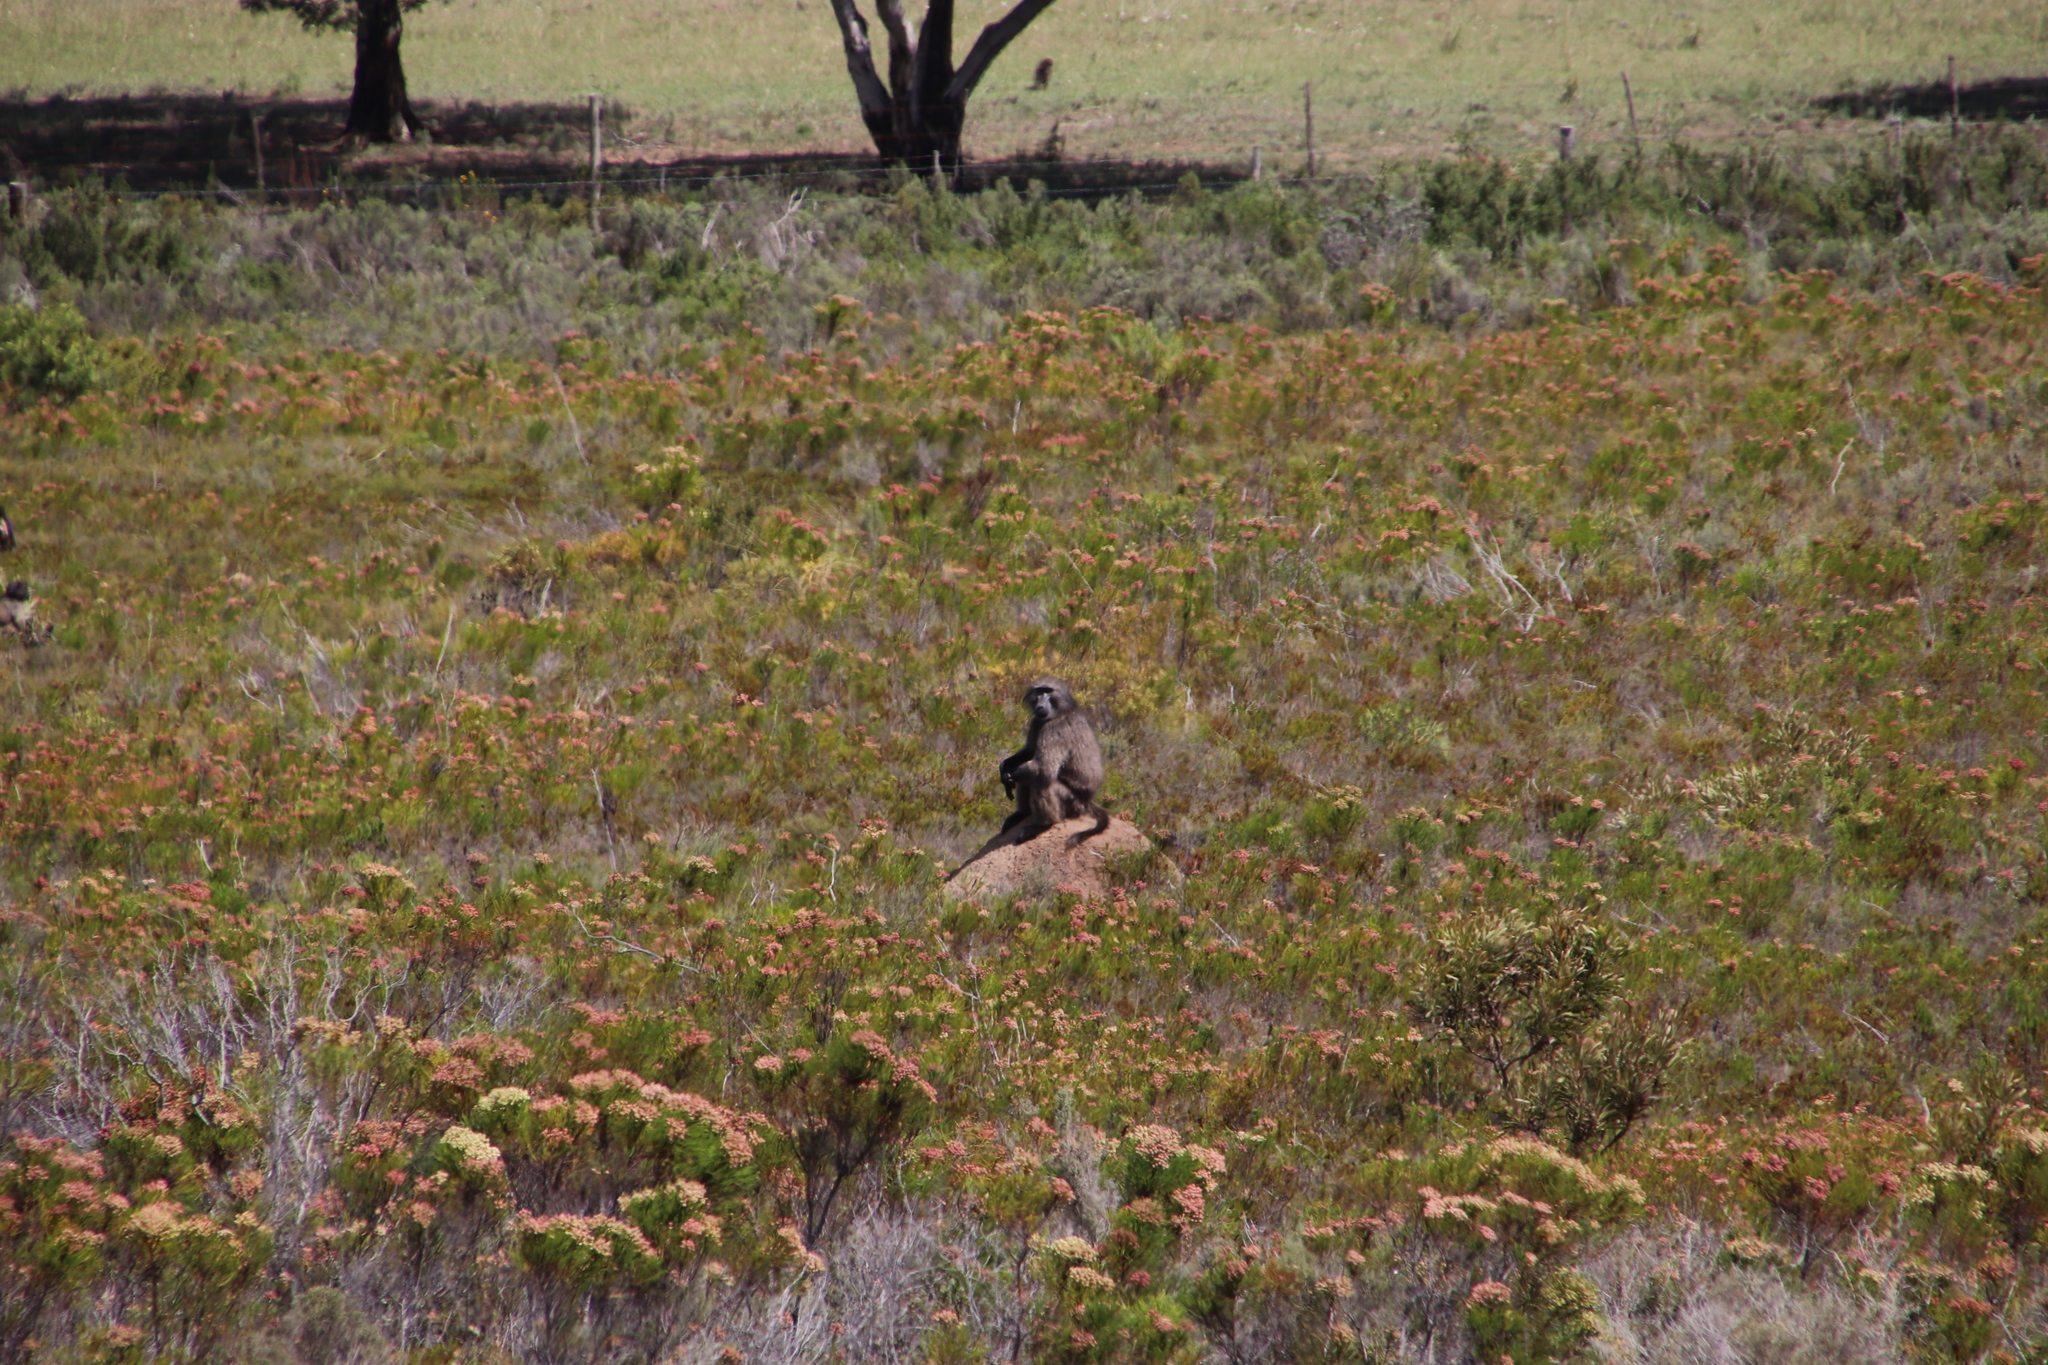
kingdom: Animalia
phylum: Chordata
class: Mammalia
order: Primates
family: Cercopithecidae
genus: Papio
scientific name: Papio ursinus
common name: Chacma baboon
